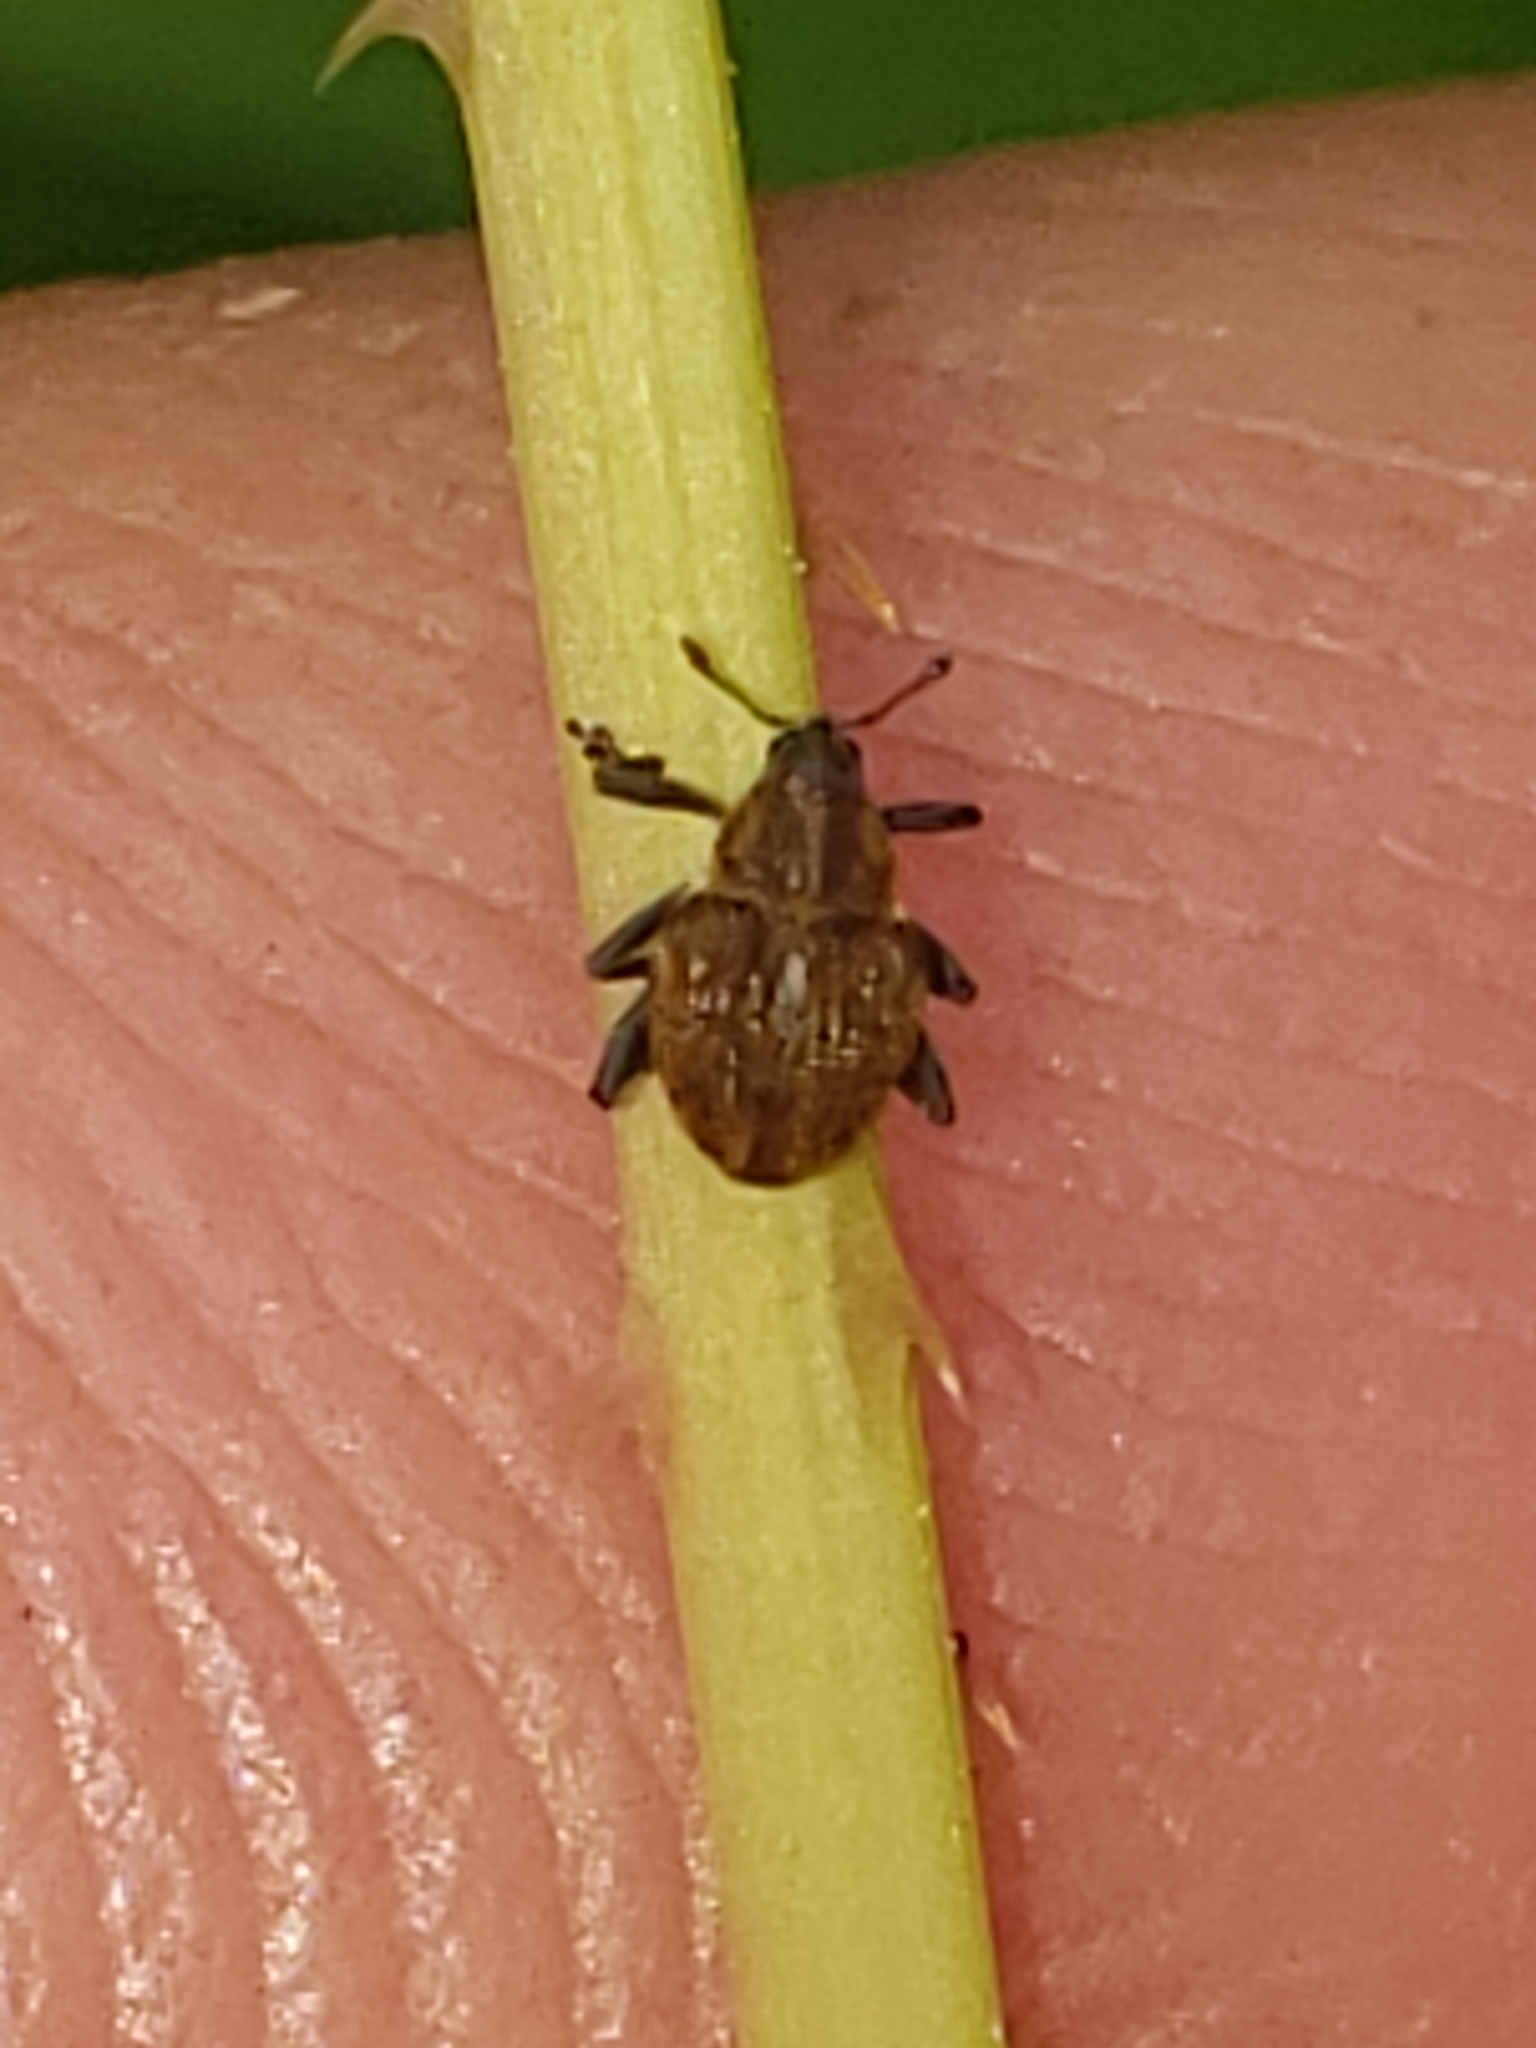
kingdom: Animalia
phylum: Arthropoda
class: Insecta
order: Coleoptera
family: Curculionidae
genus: Rhinoncomimus
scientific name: Rhinoncomimus latipes
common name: Chinese weevil
